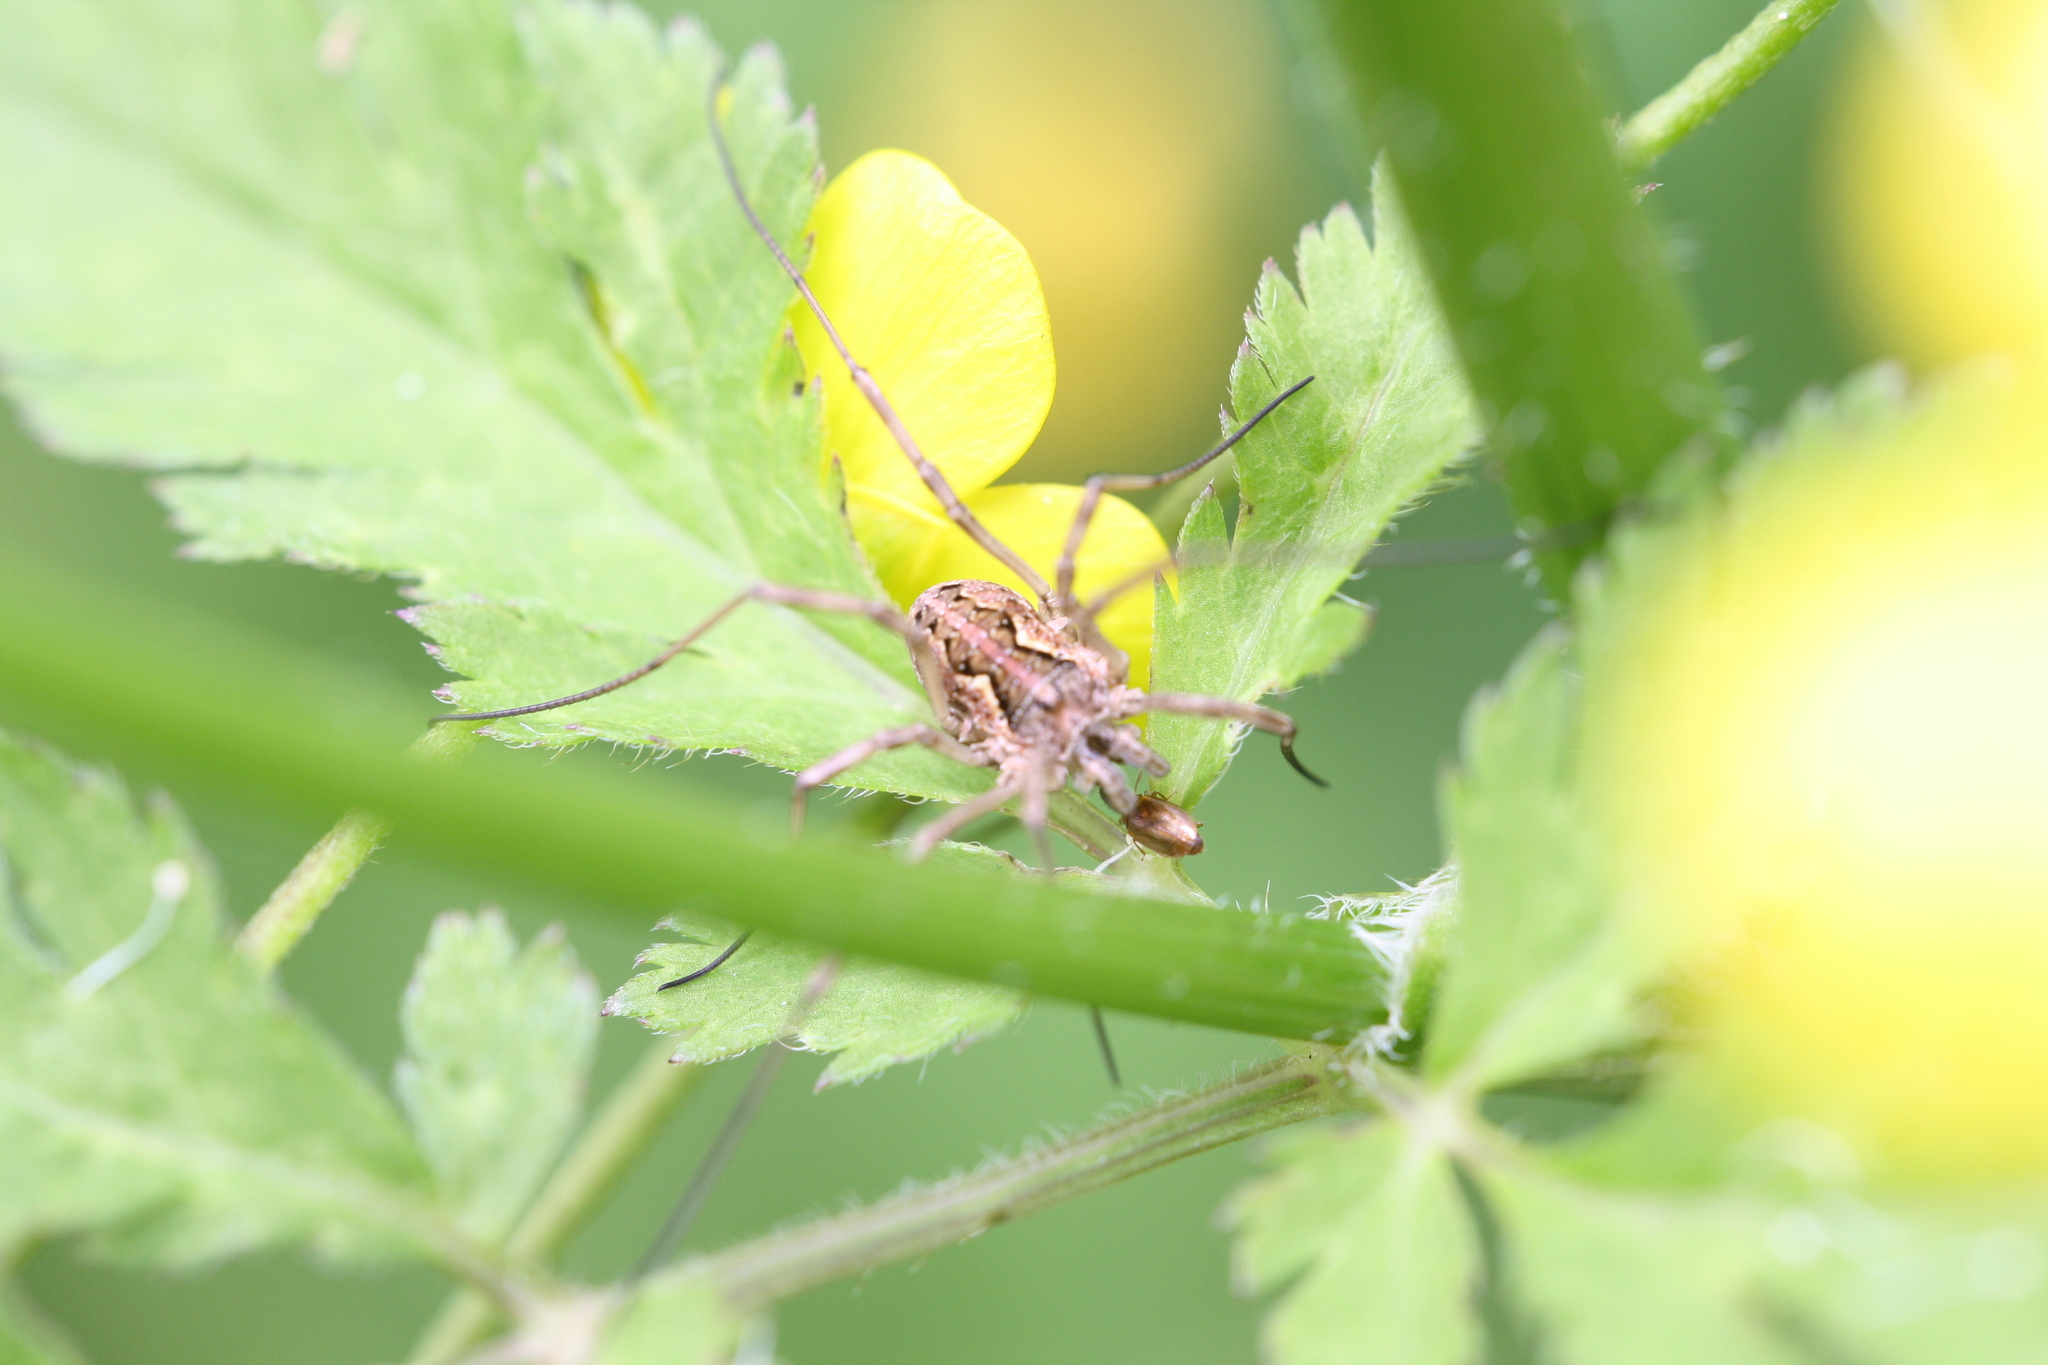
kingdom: Animalia
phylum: Arthropoda
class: Arachnida
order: Opiliones
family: Phalangiidae
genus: Mitopus
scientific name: Mitopus morio
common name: Saddleback harvestman
